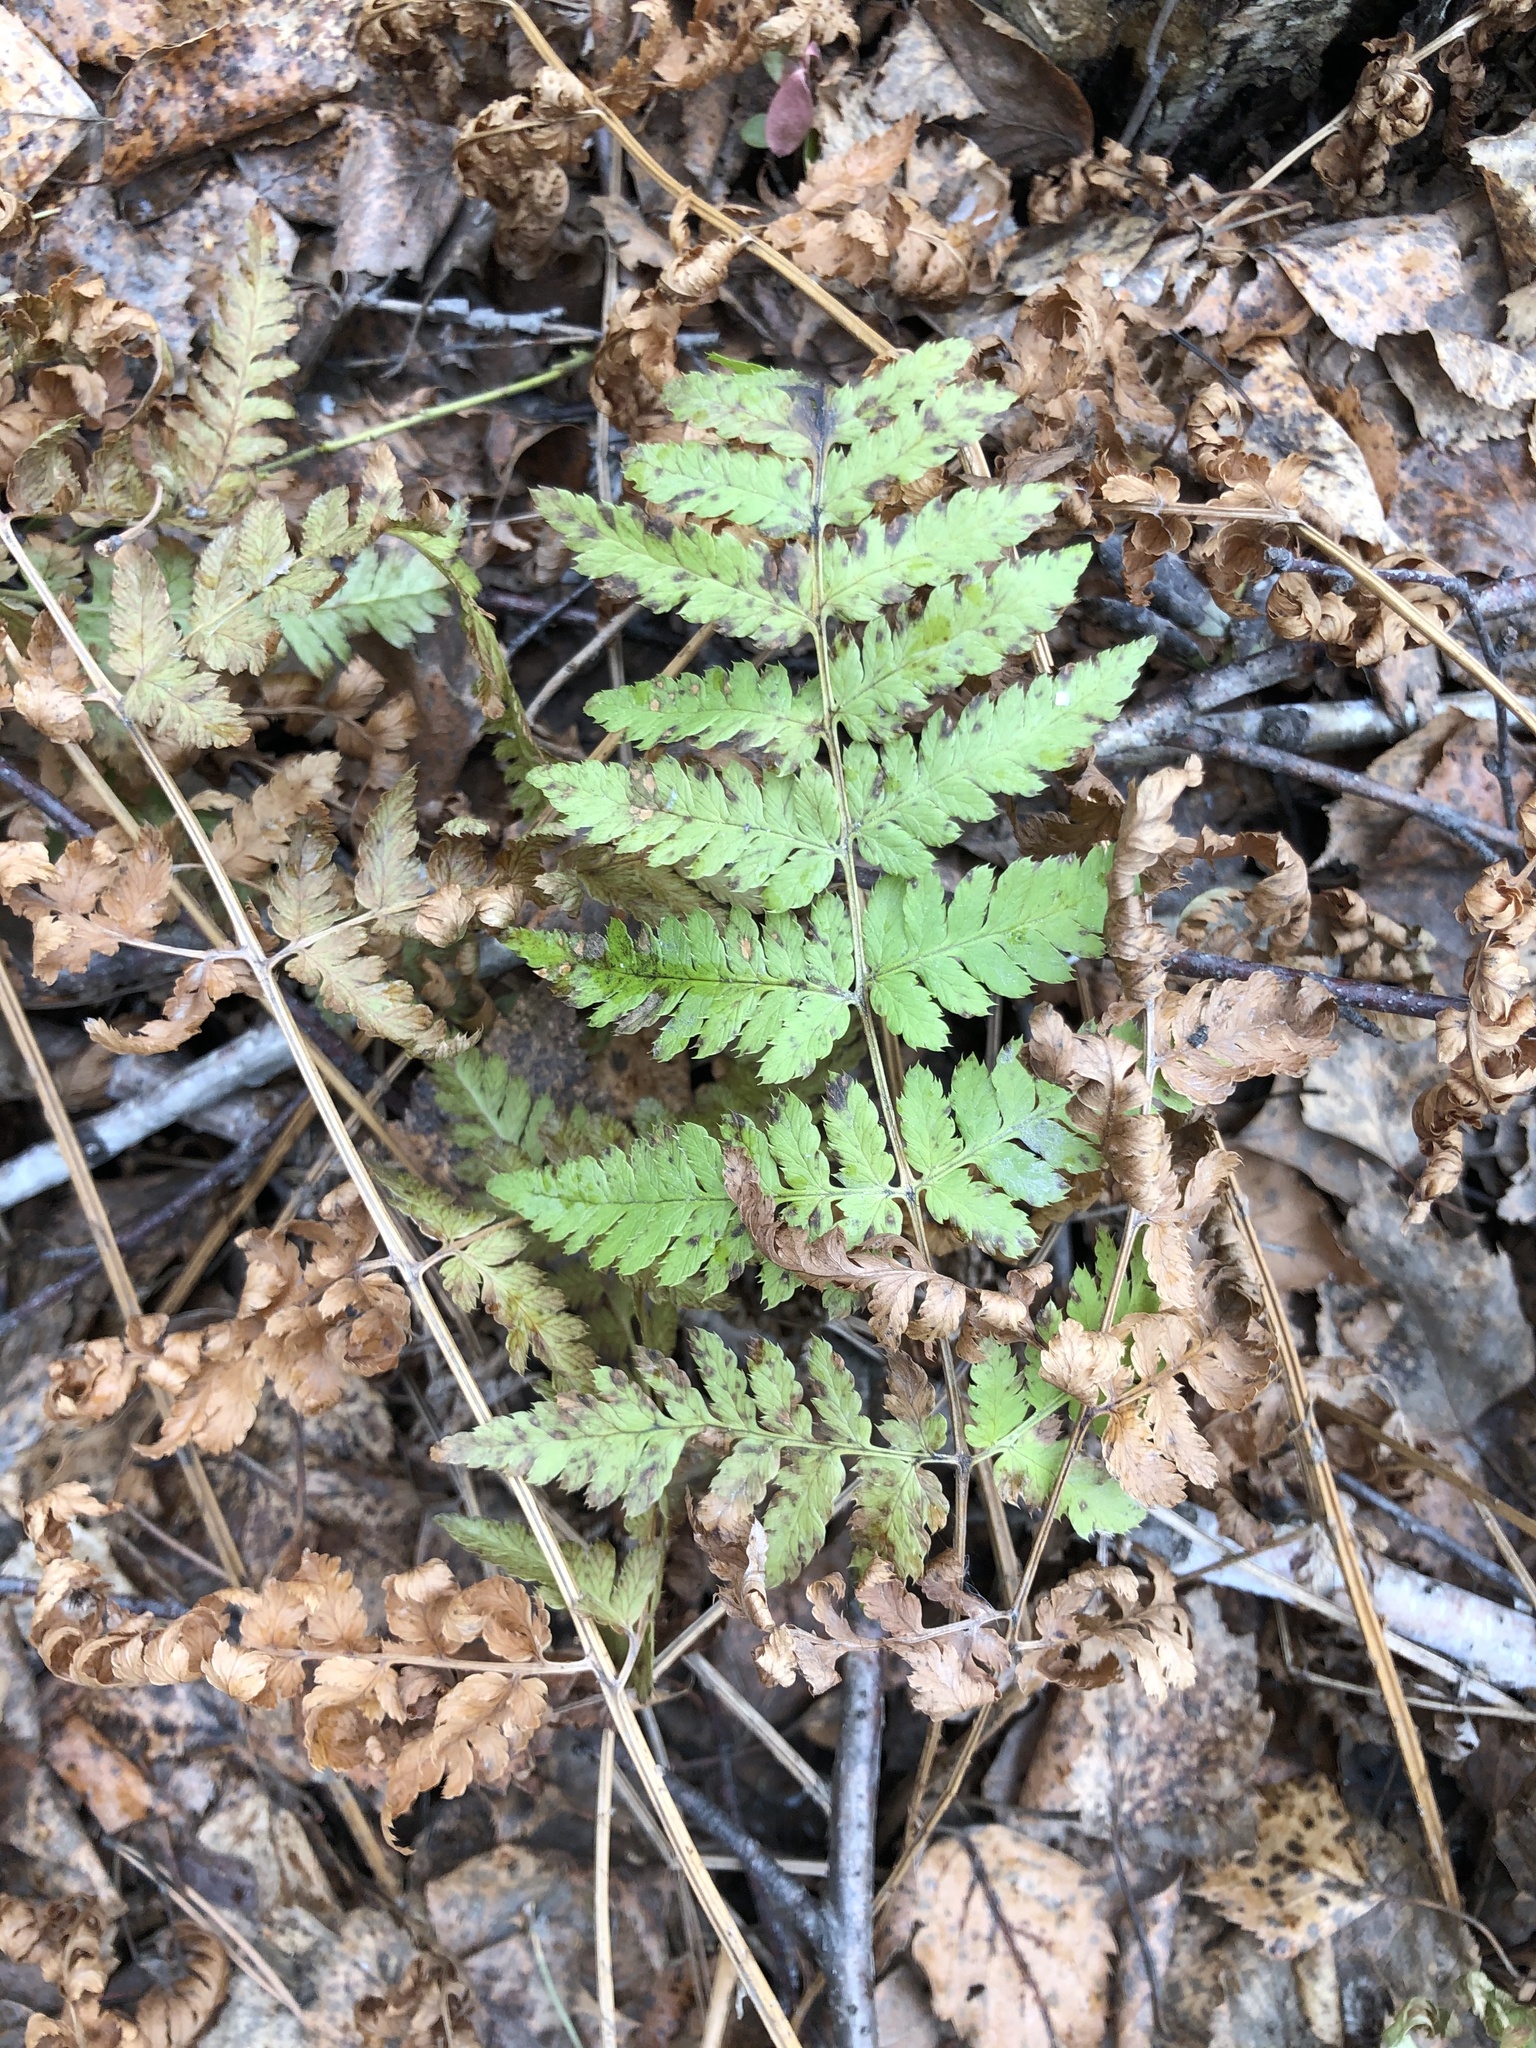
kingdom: Plantae
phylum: Tracheophyta
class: Polypodiopsida
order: Polypodiales
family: Dryopteridaceae
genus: Dryopteris
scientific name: Dryopteris carthusiana
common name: Narrow buckler-fern
